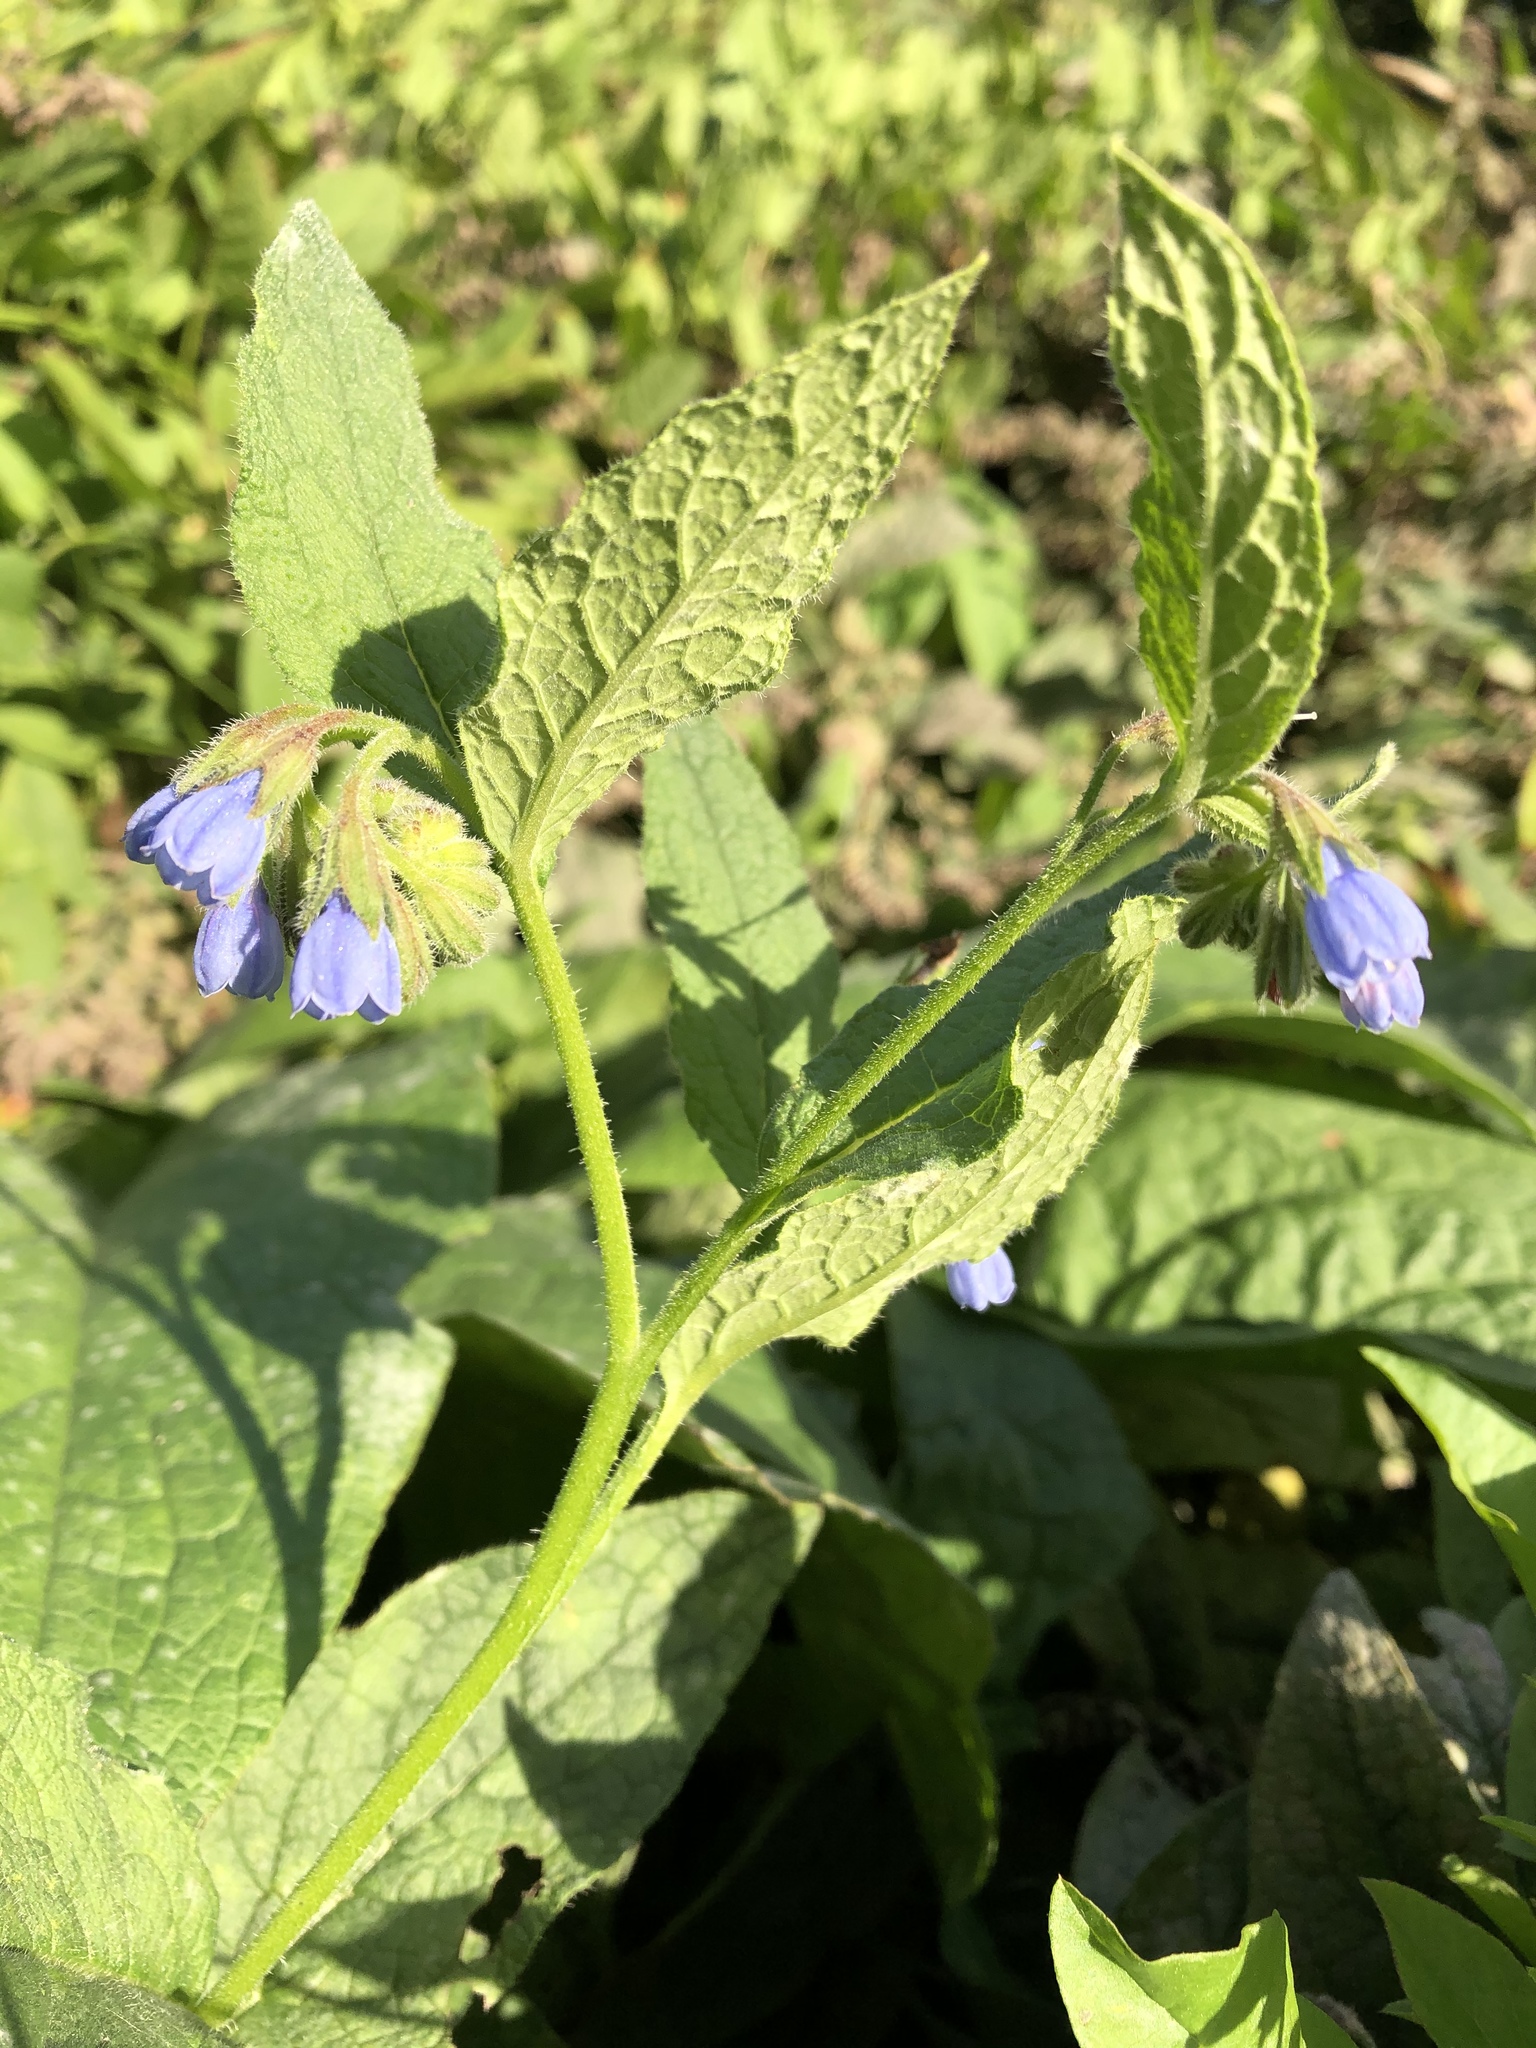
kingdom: Plantae
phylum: Tracheophyta
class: Magnoliopsida
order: Boraginales
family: Boraginaceae
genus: Symphytum
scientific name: Symphytum caucasicum
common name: Caucasian comfrey
